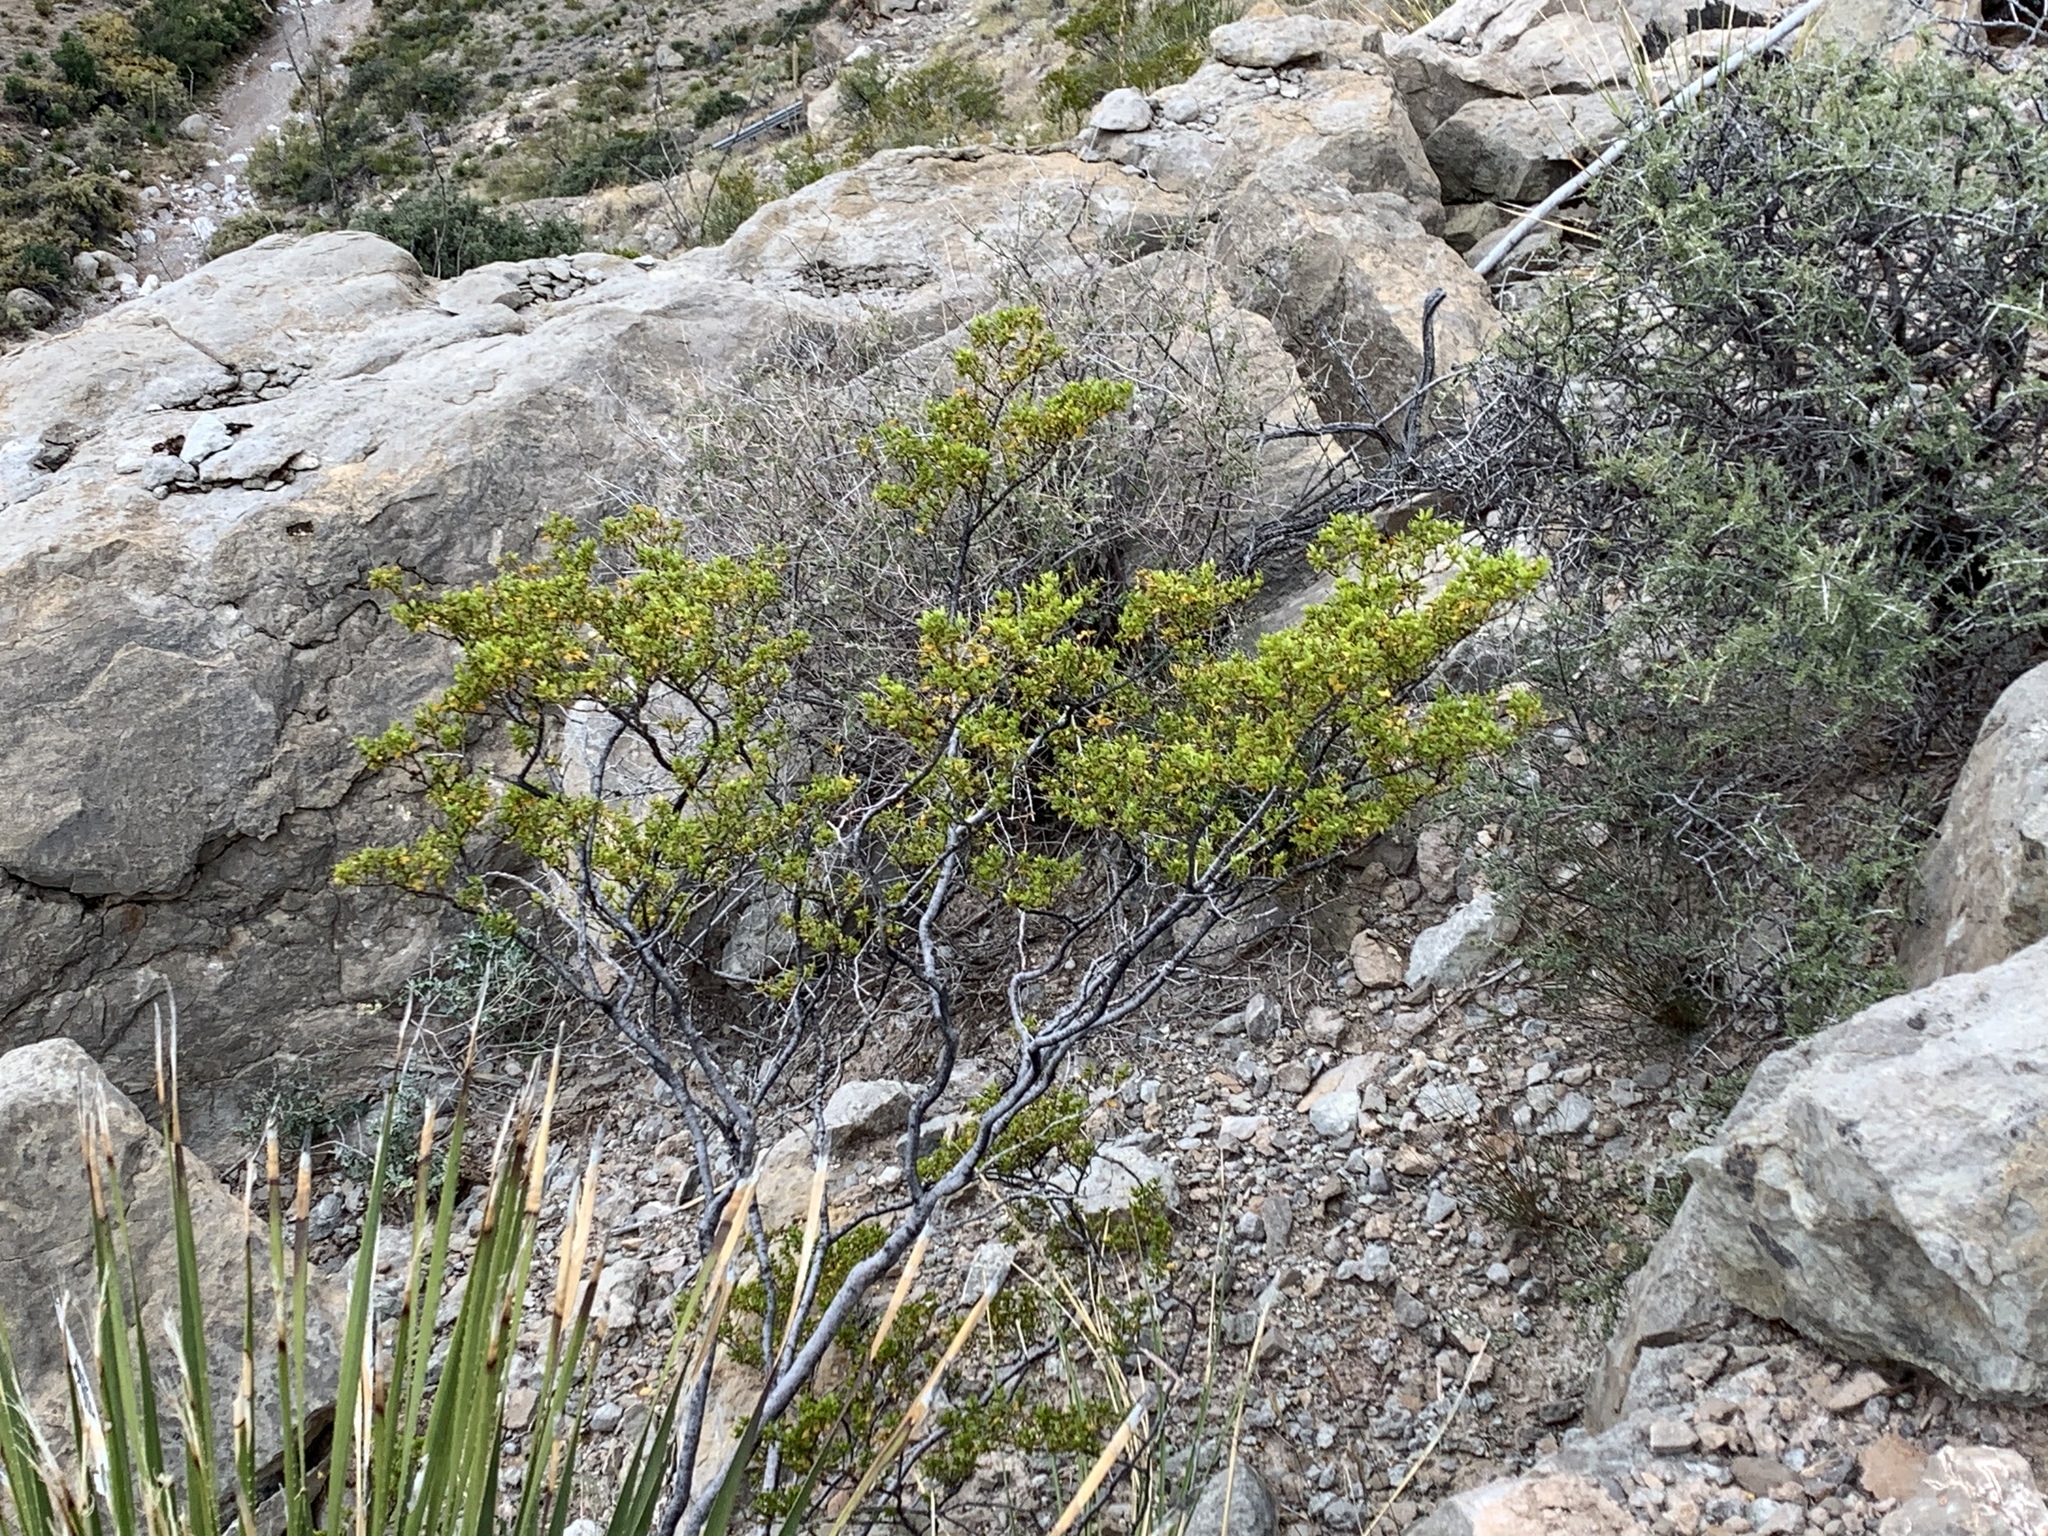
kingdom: Plantae
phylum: Tracheophyta
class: Magnoliopsida
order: Zygophyllales
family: Zygophyllaceae
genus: Larrea
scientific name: Larrea tridentata
